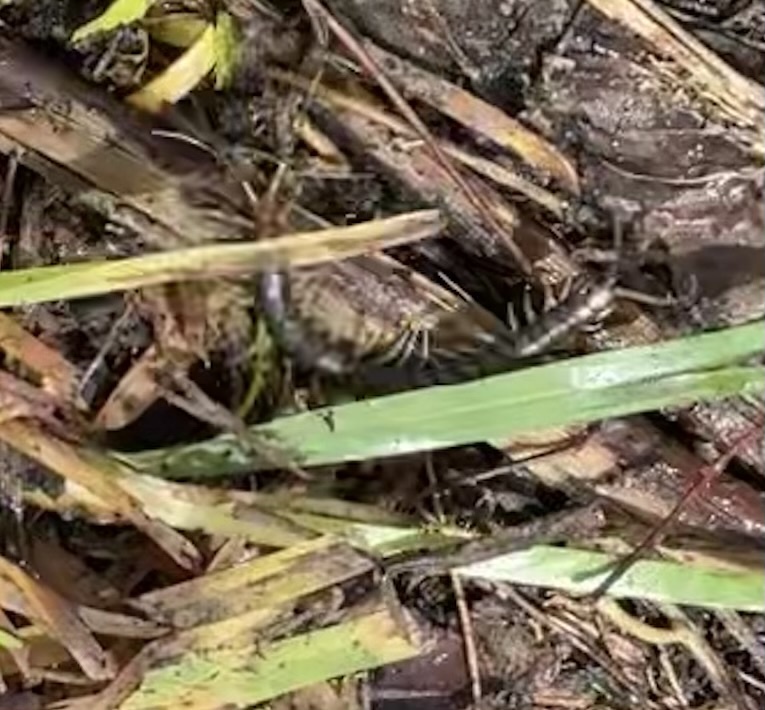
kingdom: Animalia
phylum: Arthropoda
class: Chilopoda
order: Scolopendromorpha
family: Scolopendridae
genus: Rhysida
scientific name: Rhysida longipes
